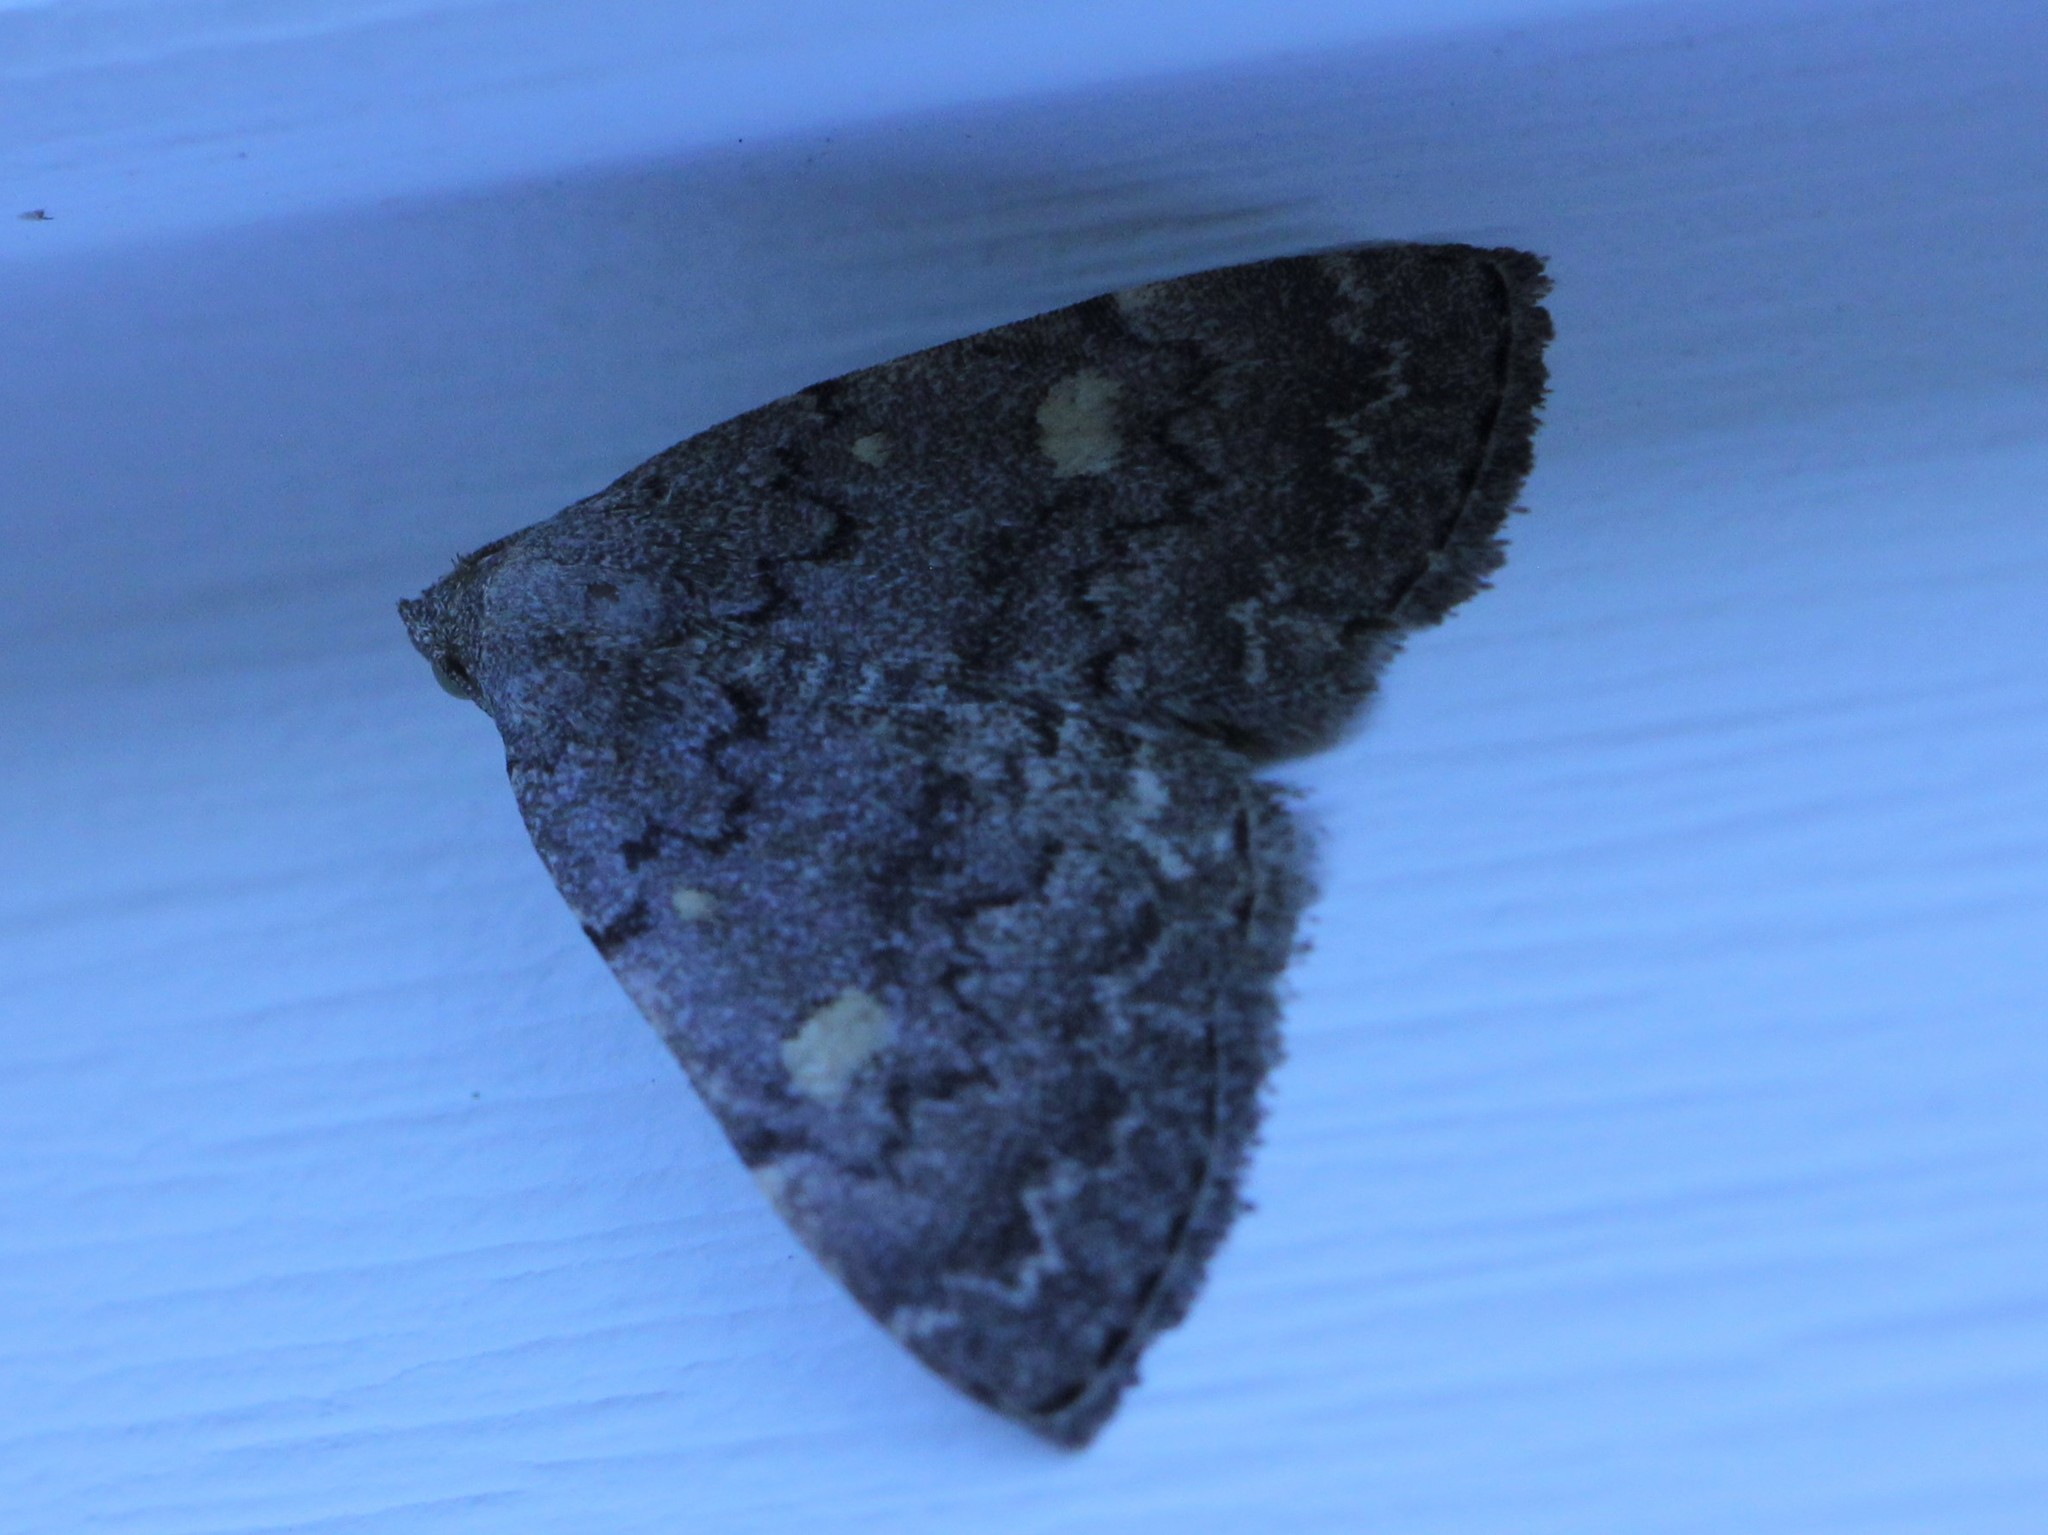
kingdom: Animalia
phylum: Arthropoda
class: Insecta
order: Lepidoptera
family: Erebidae
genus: Idia
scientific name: Idia aemula
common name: Common idia moth
